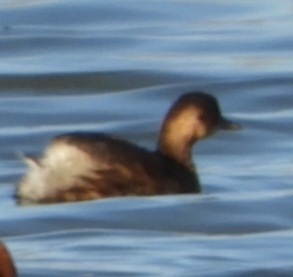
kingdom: Animalia
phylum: Chordata
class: Aves
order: Podicipediformes
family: Podicipedidae
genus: Tachybaptus
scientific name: Tachybaptus ruficollis
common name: Little grebe
